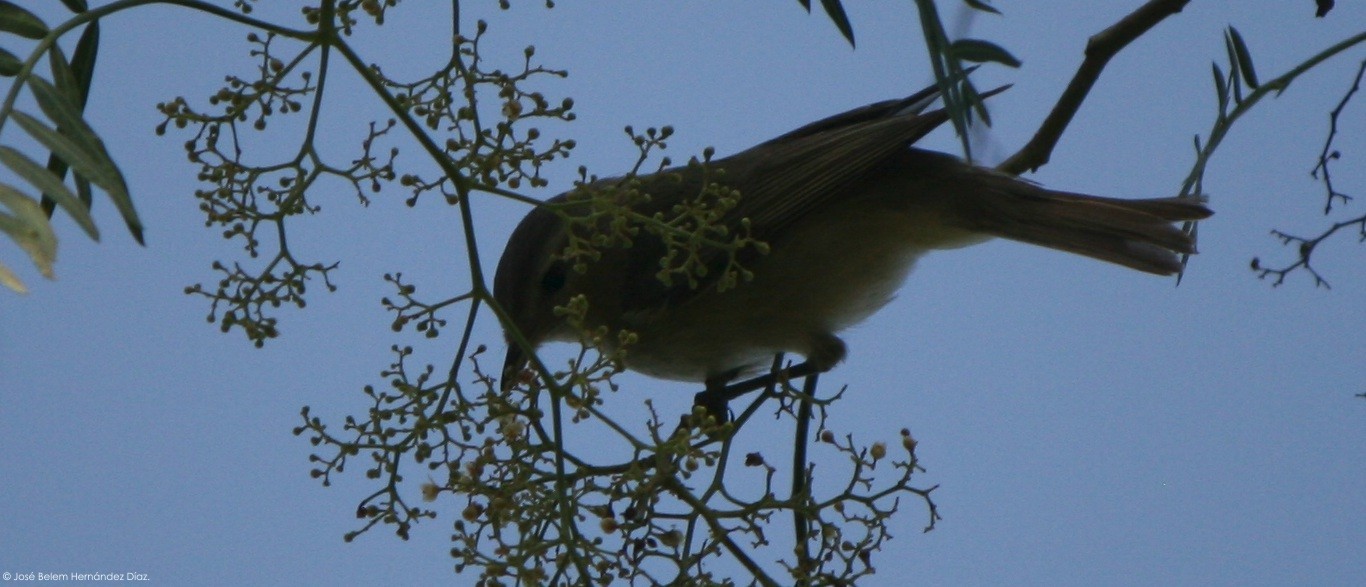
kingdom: Animalia
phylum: Chordata
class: Aves
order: Passeriformes
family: Vireonidae
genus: Vireo
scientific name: Vireo gilvus
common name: Warbling vireo
